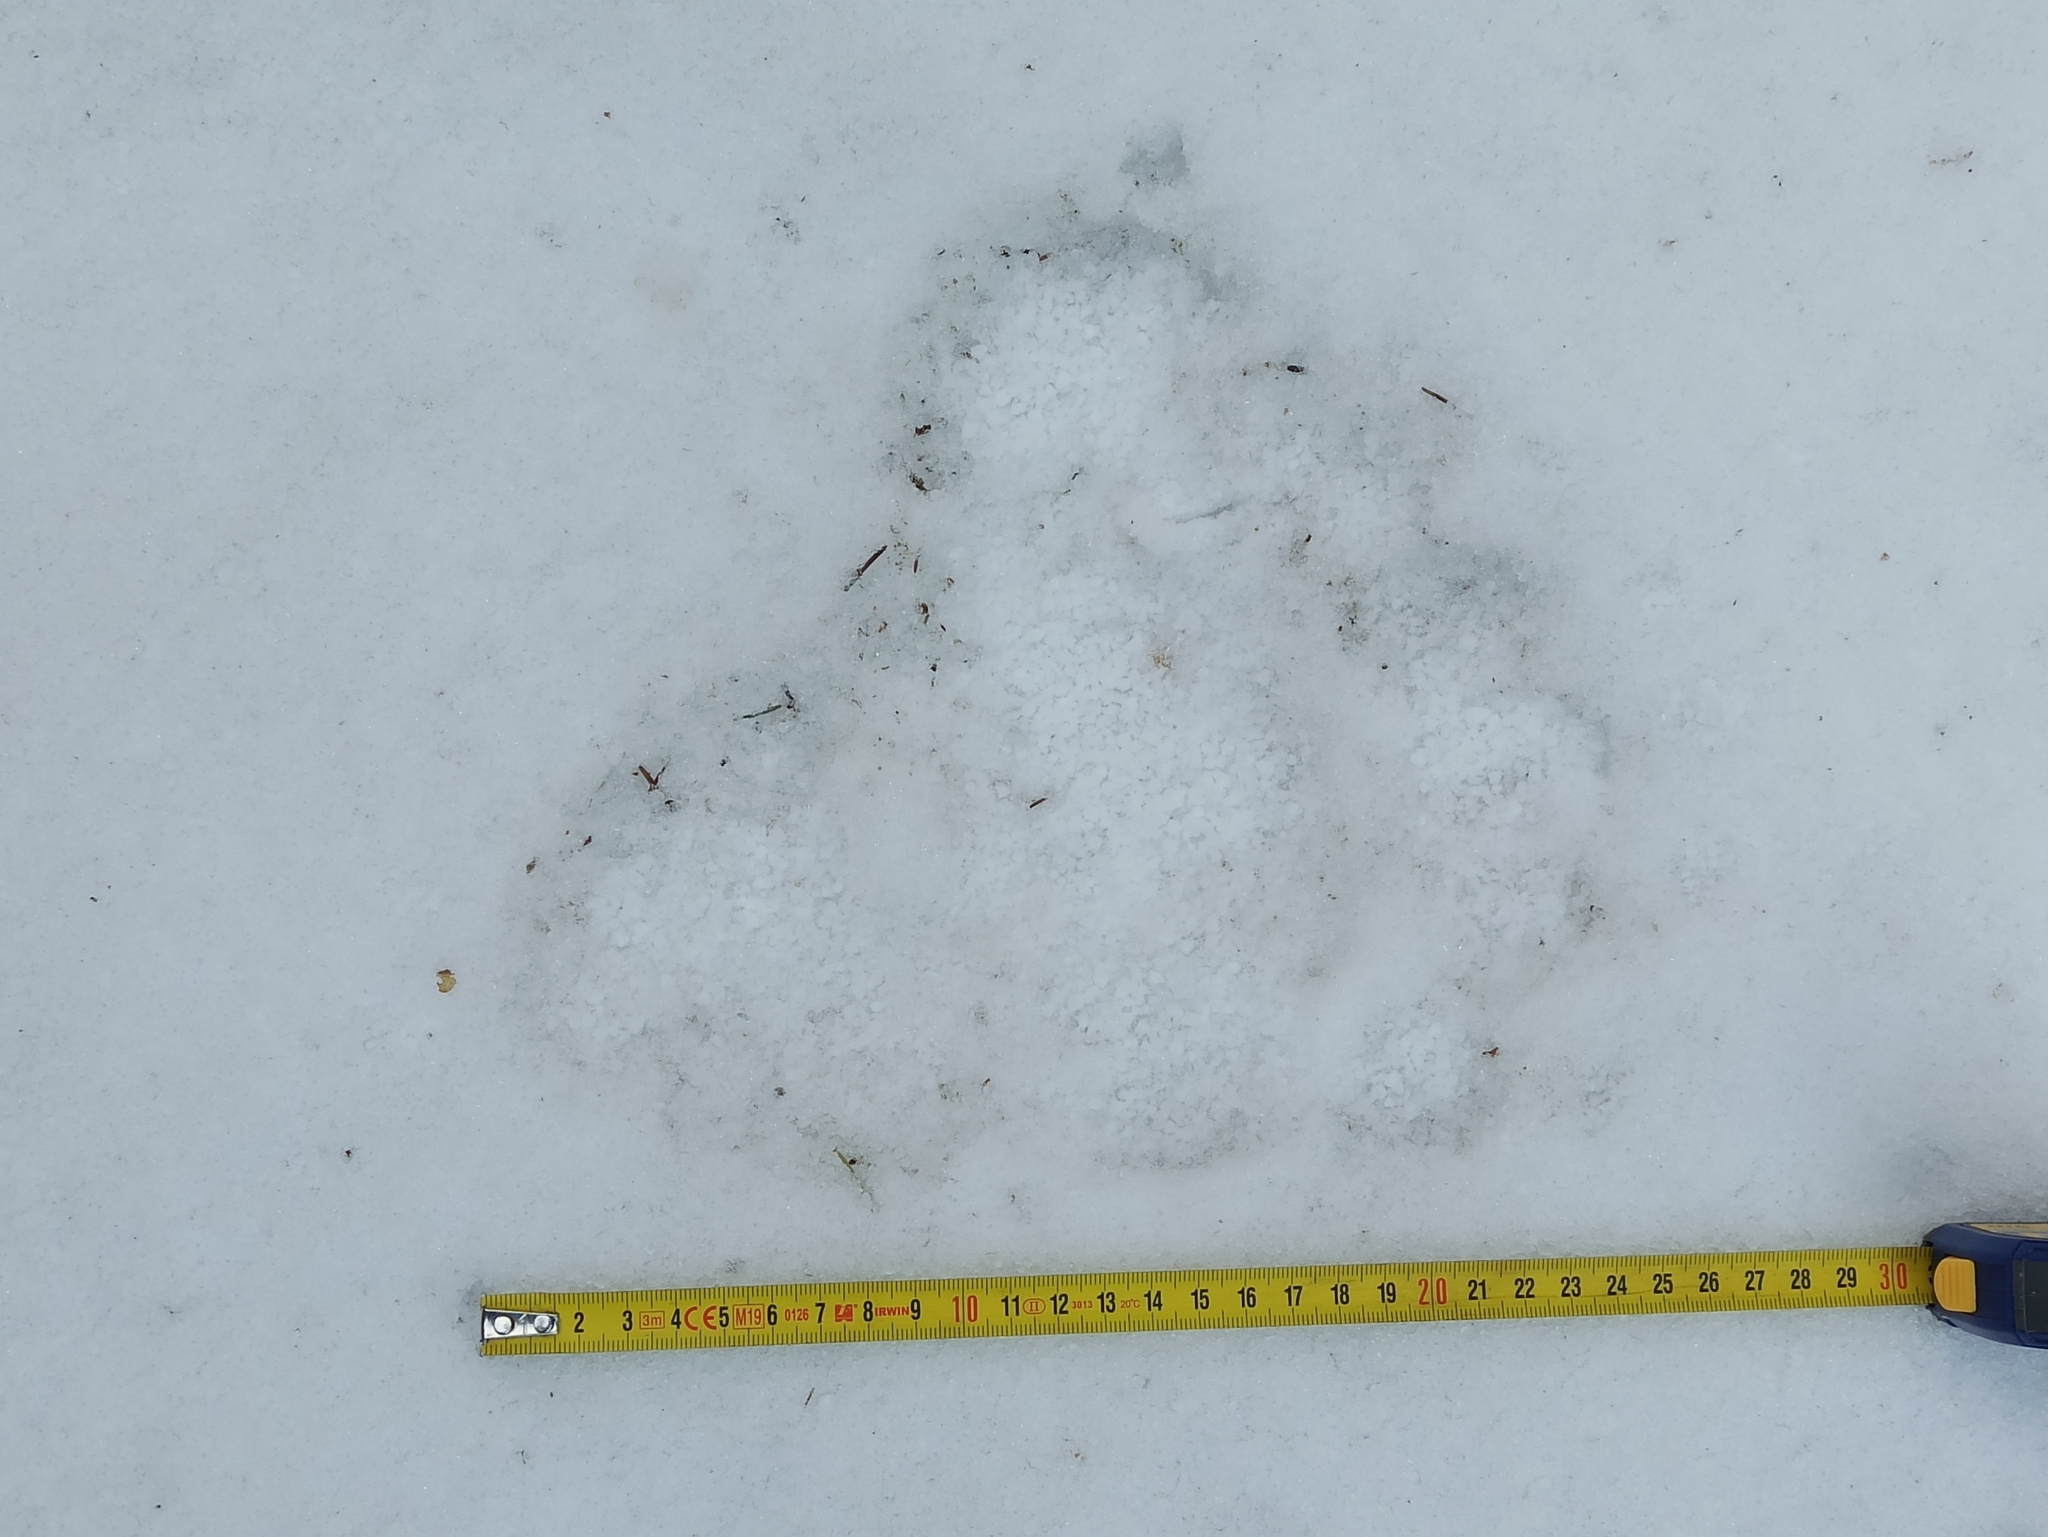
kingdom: Animalia
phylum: Chordata
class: Mammalia
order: Carnivora
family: Ursidae
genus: Ursus
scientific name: Ursus arctos
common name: Brown bear
